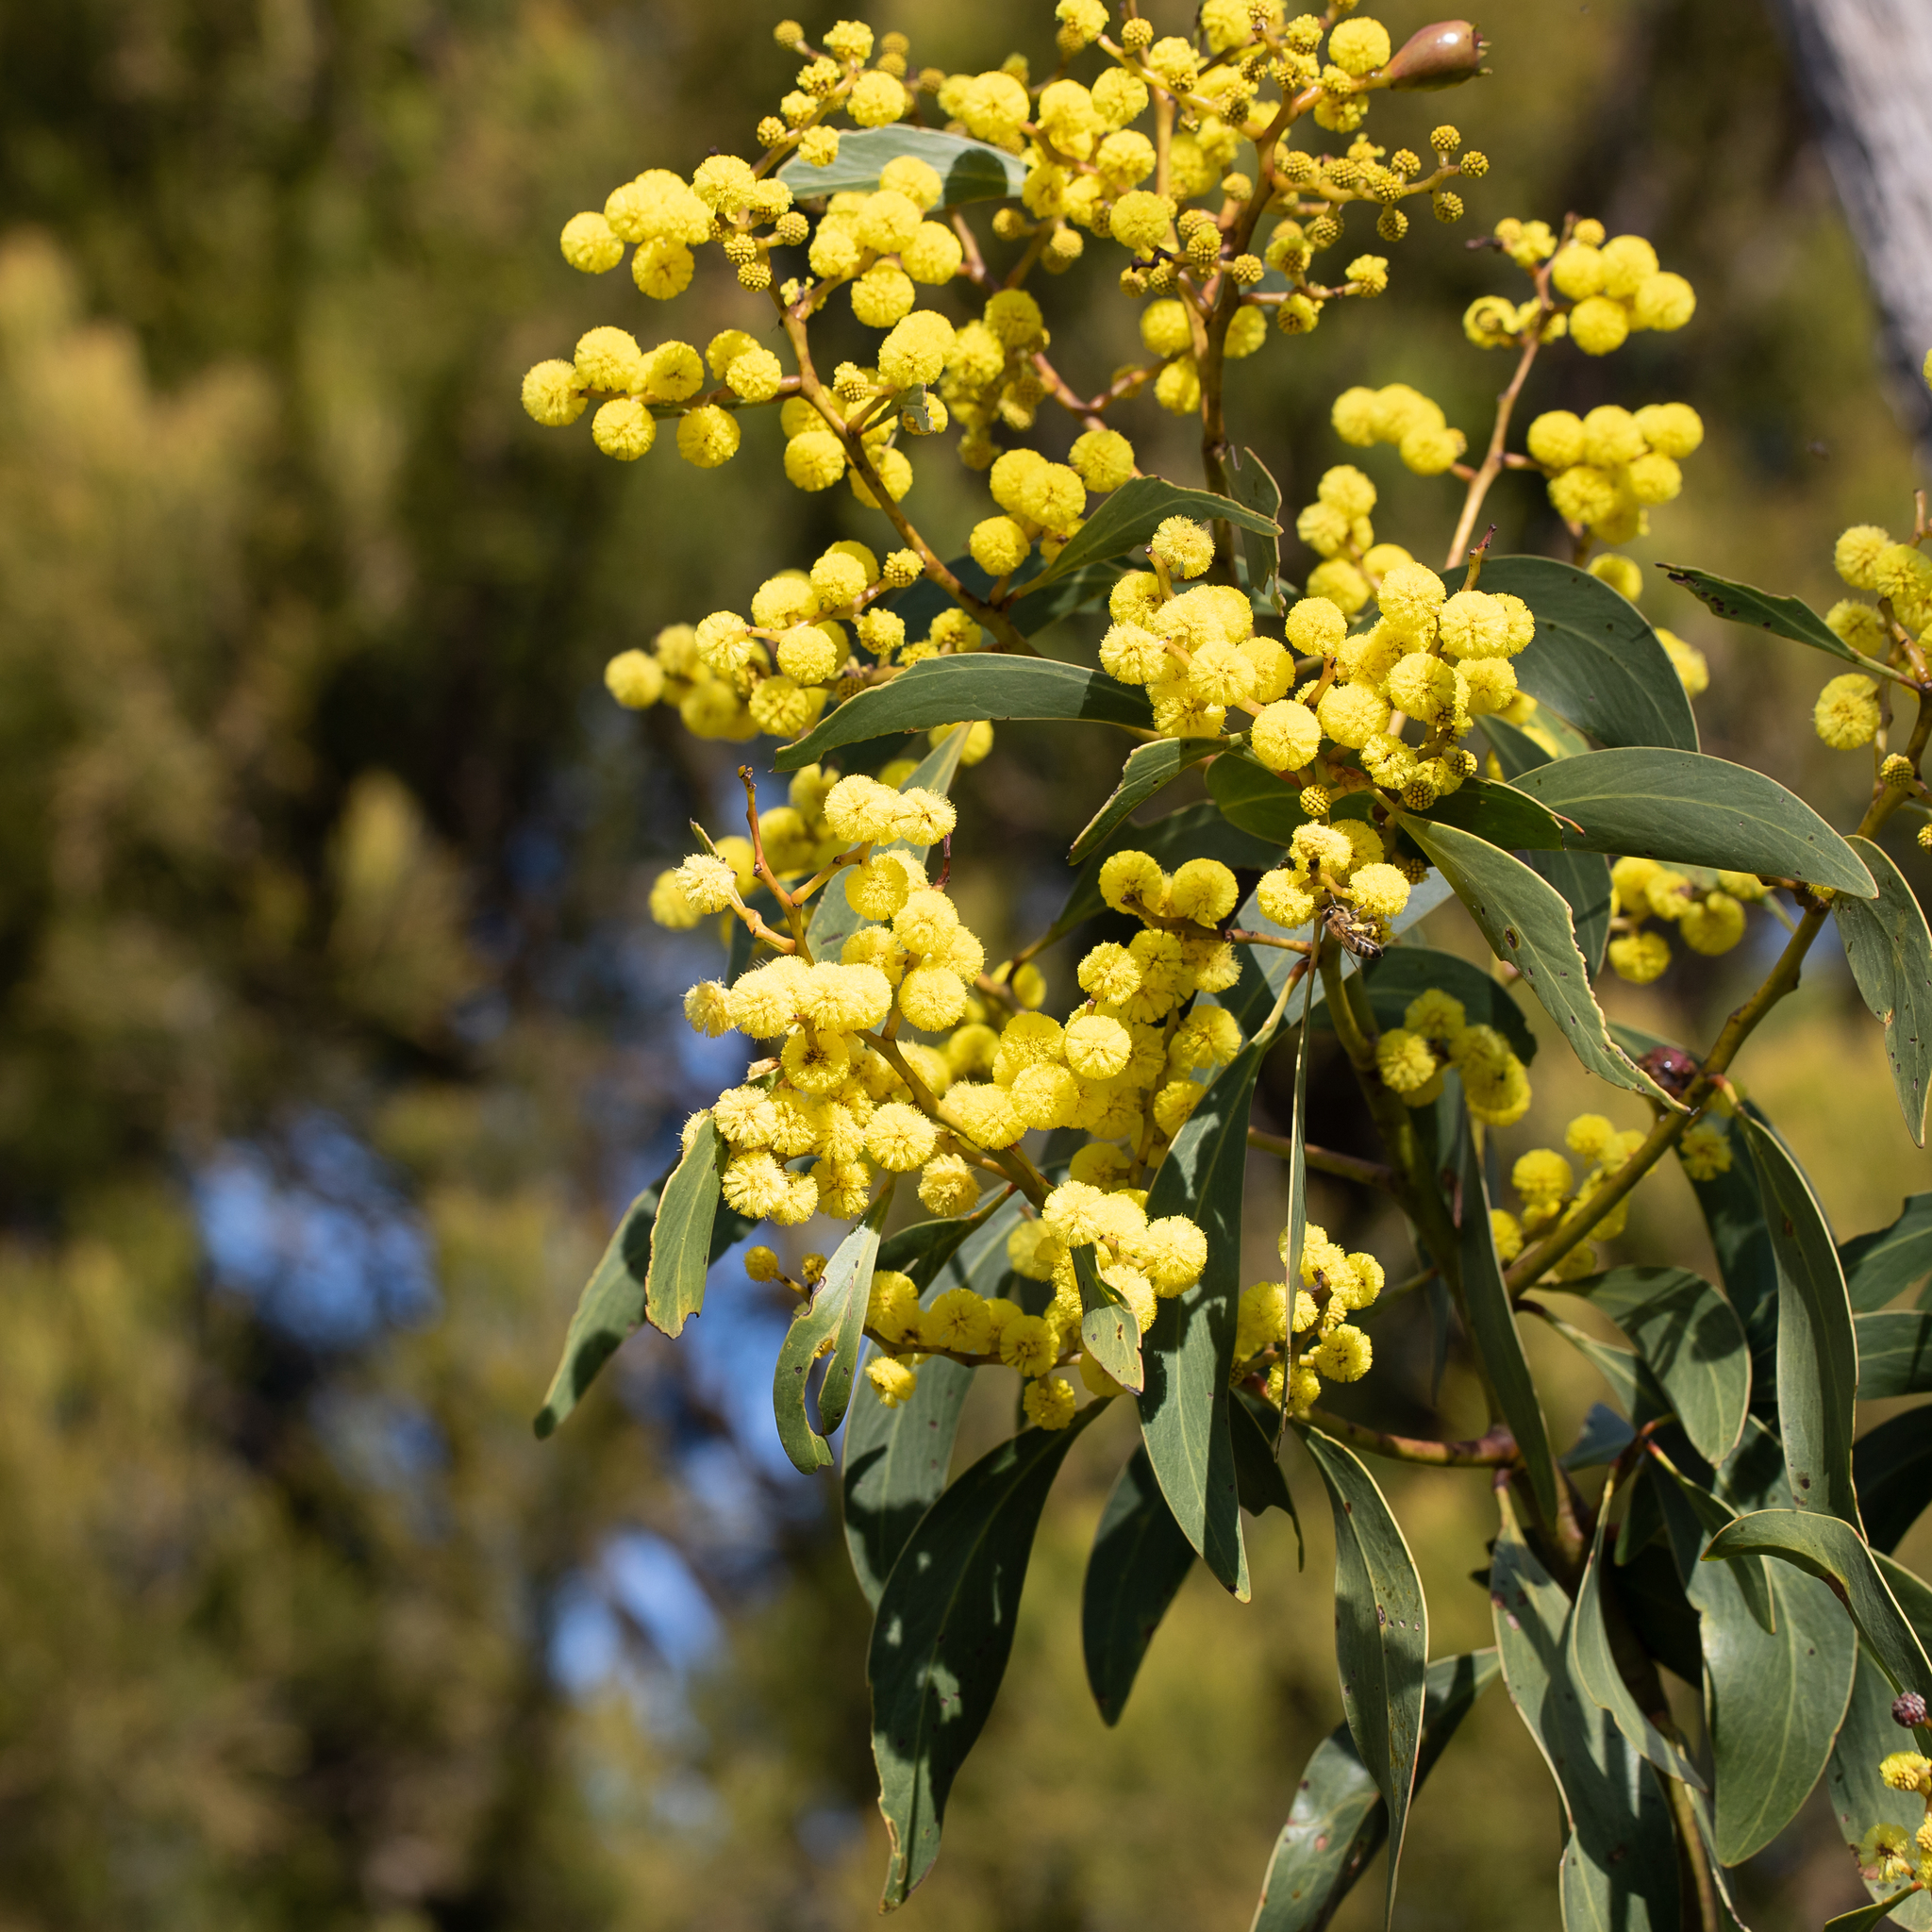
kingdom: Plantae
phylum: Tracheophyta
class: Magnoliopsida
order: Fabales
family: Fabaceae
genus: Acacia
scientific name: Acacia pycnantha
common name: Golden wattle
